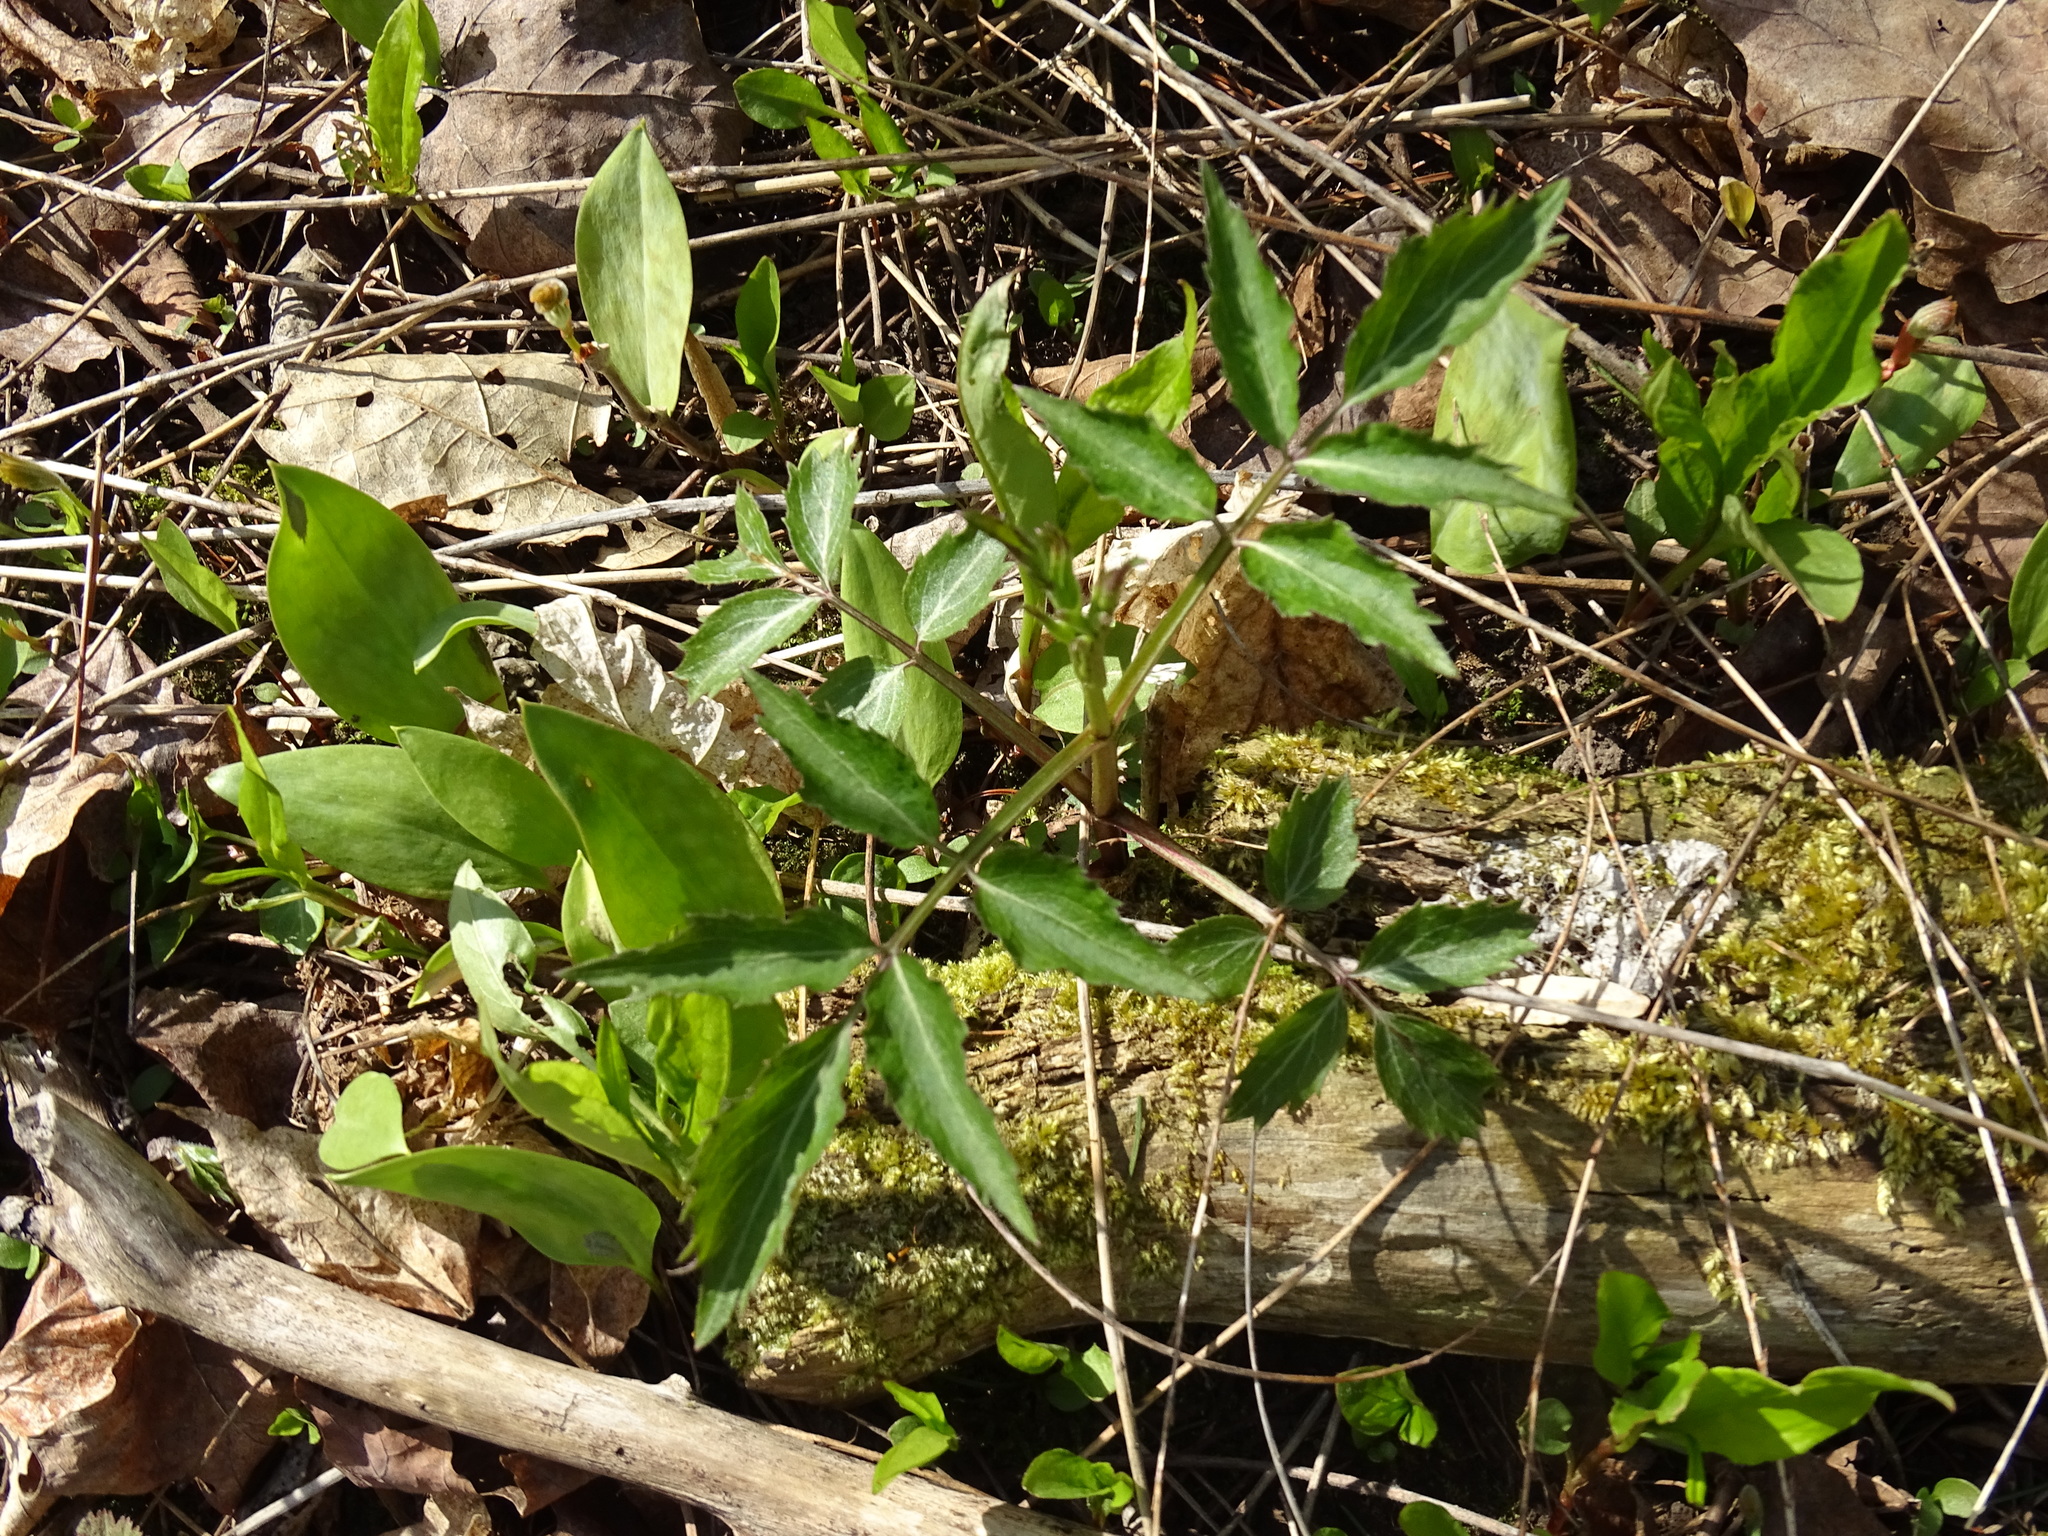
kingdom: Plantae
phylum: Tracheophyta
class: Magnoliopsida
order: Dipsacales
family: Viburnaceae
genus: Sambucus
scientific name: Sambucus
